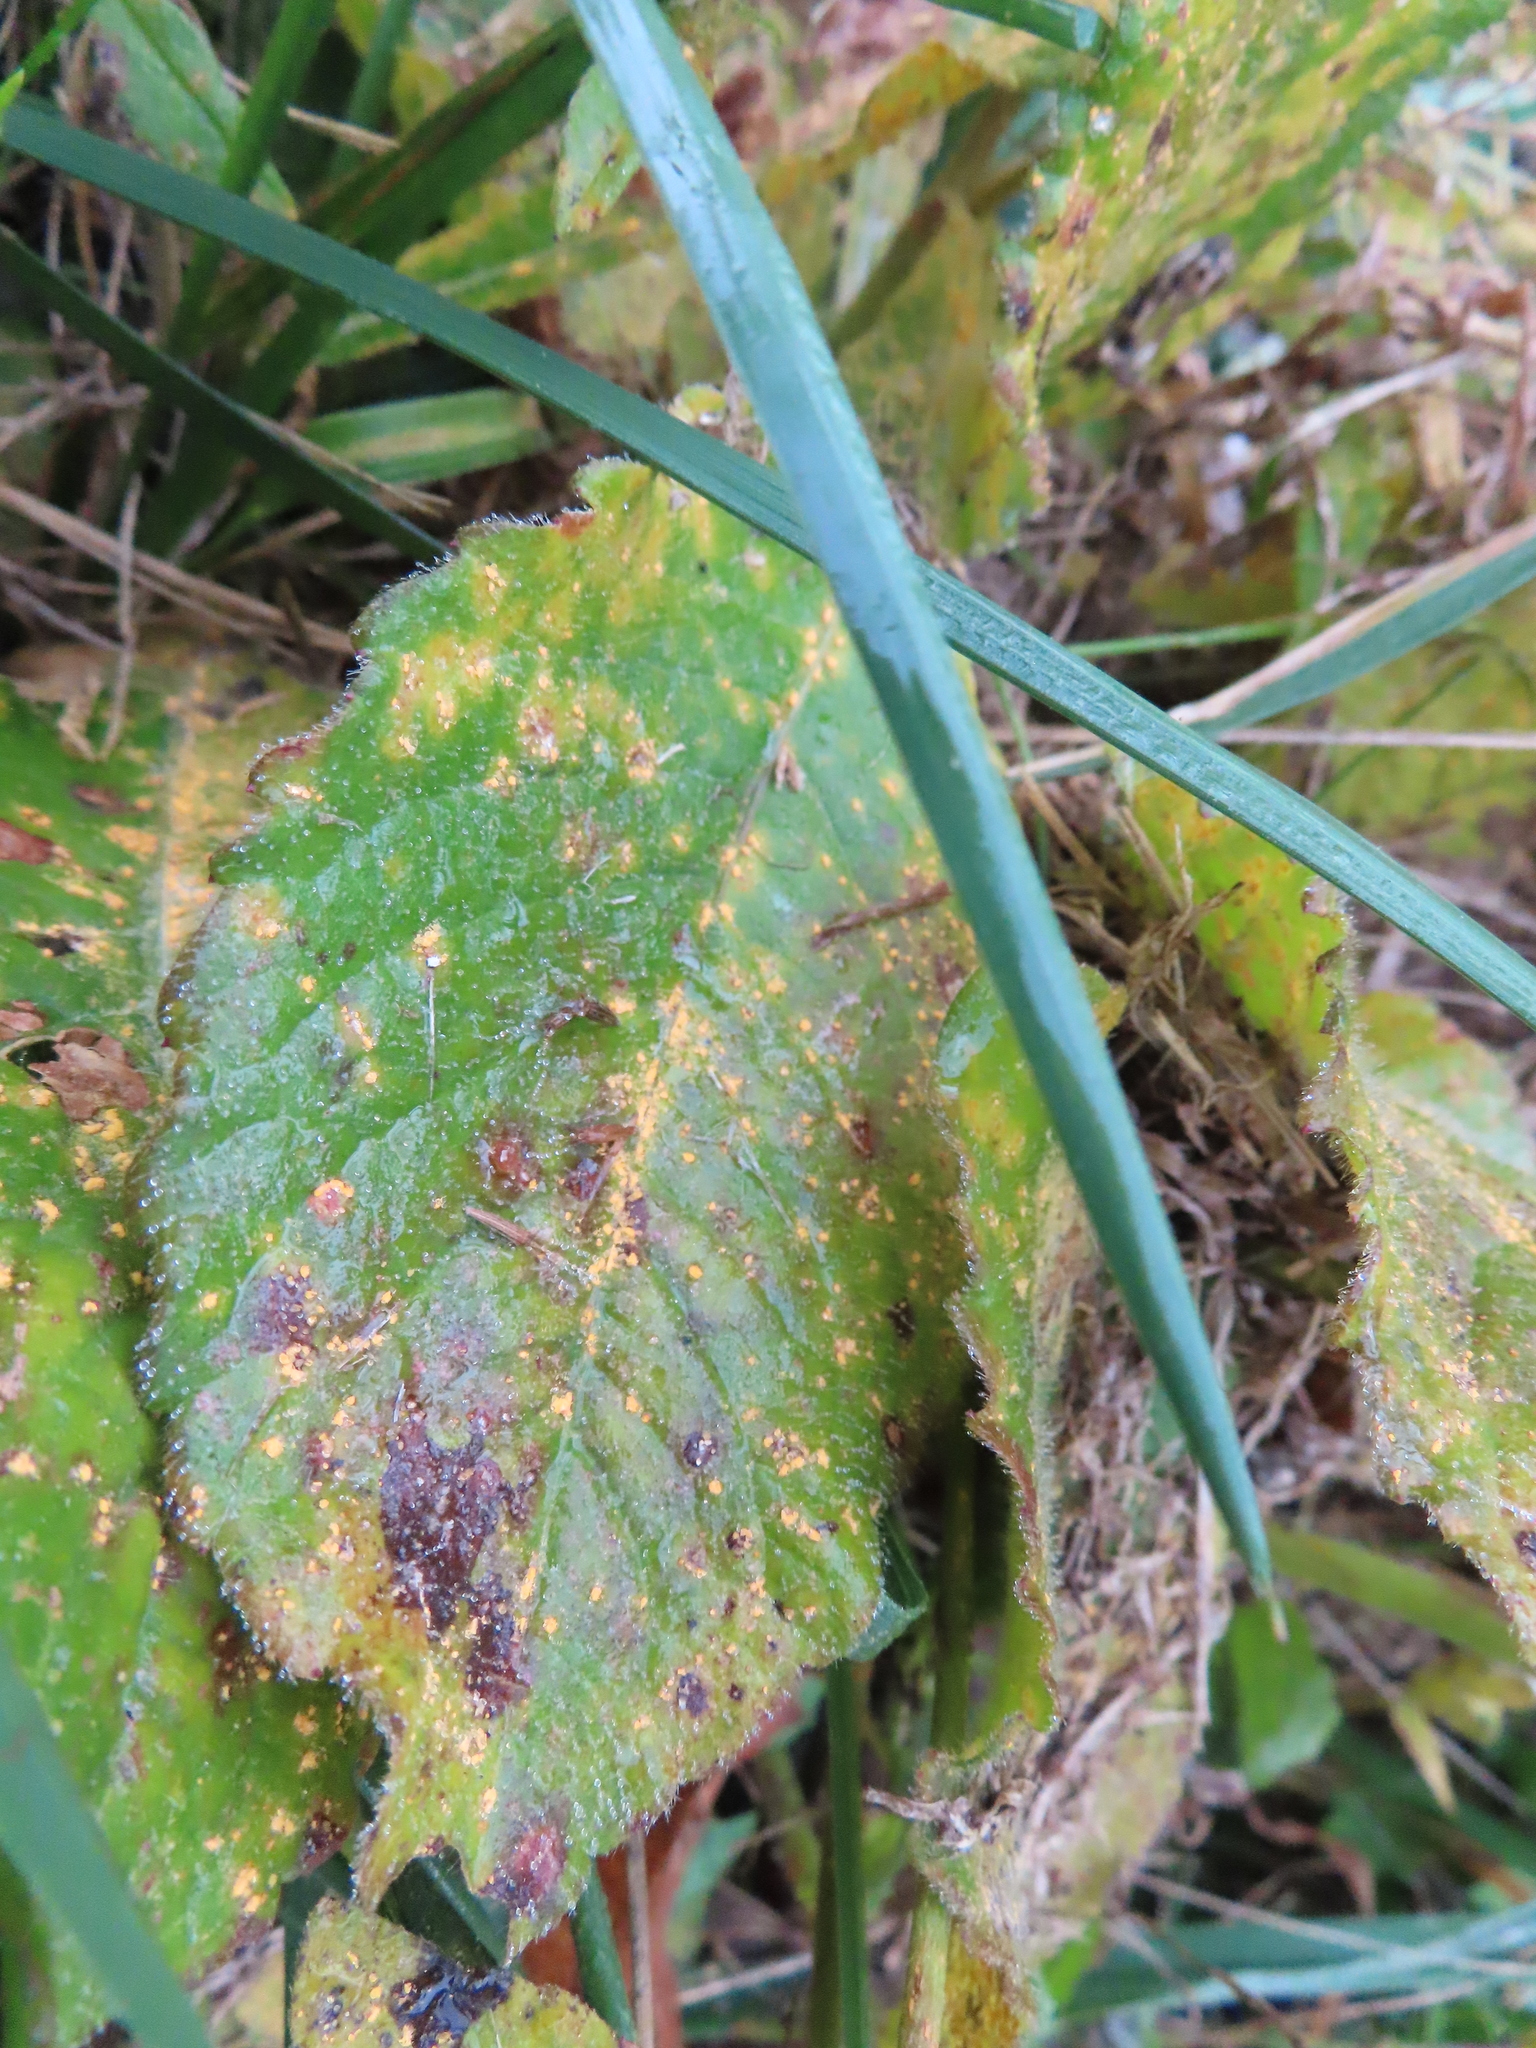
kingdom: Plantae
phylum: Tracheophyta
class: Magnoliopsida
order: Asterales
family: Asteraceae
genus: Elephantopus
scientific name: Elephantopus carolinianus
